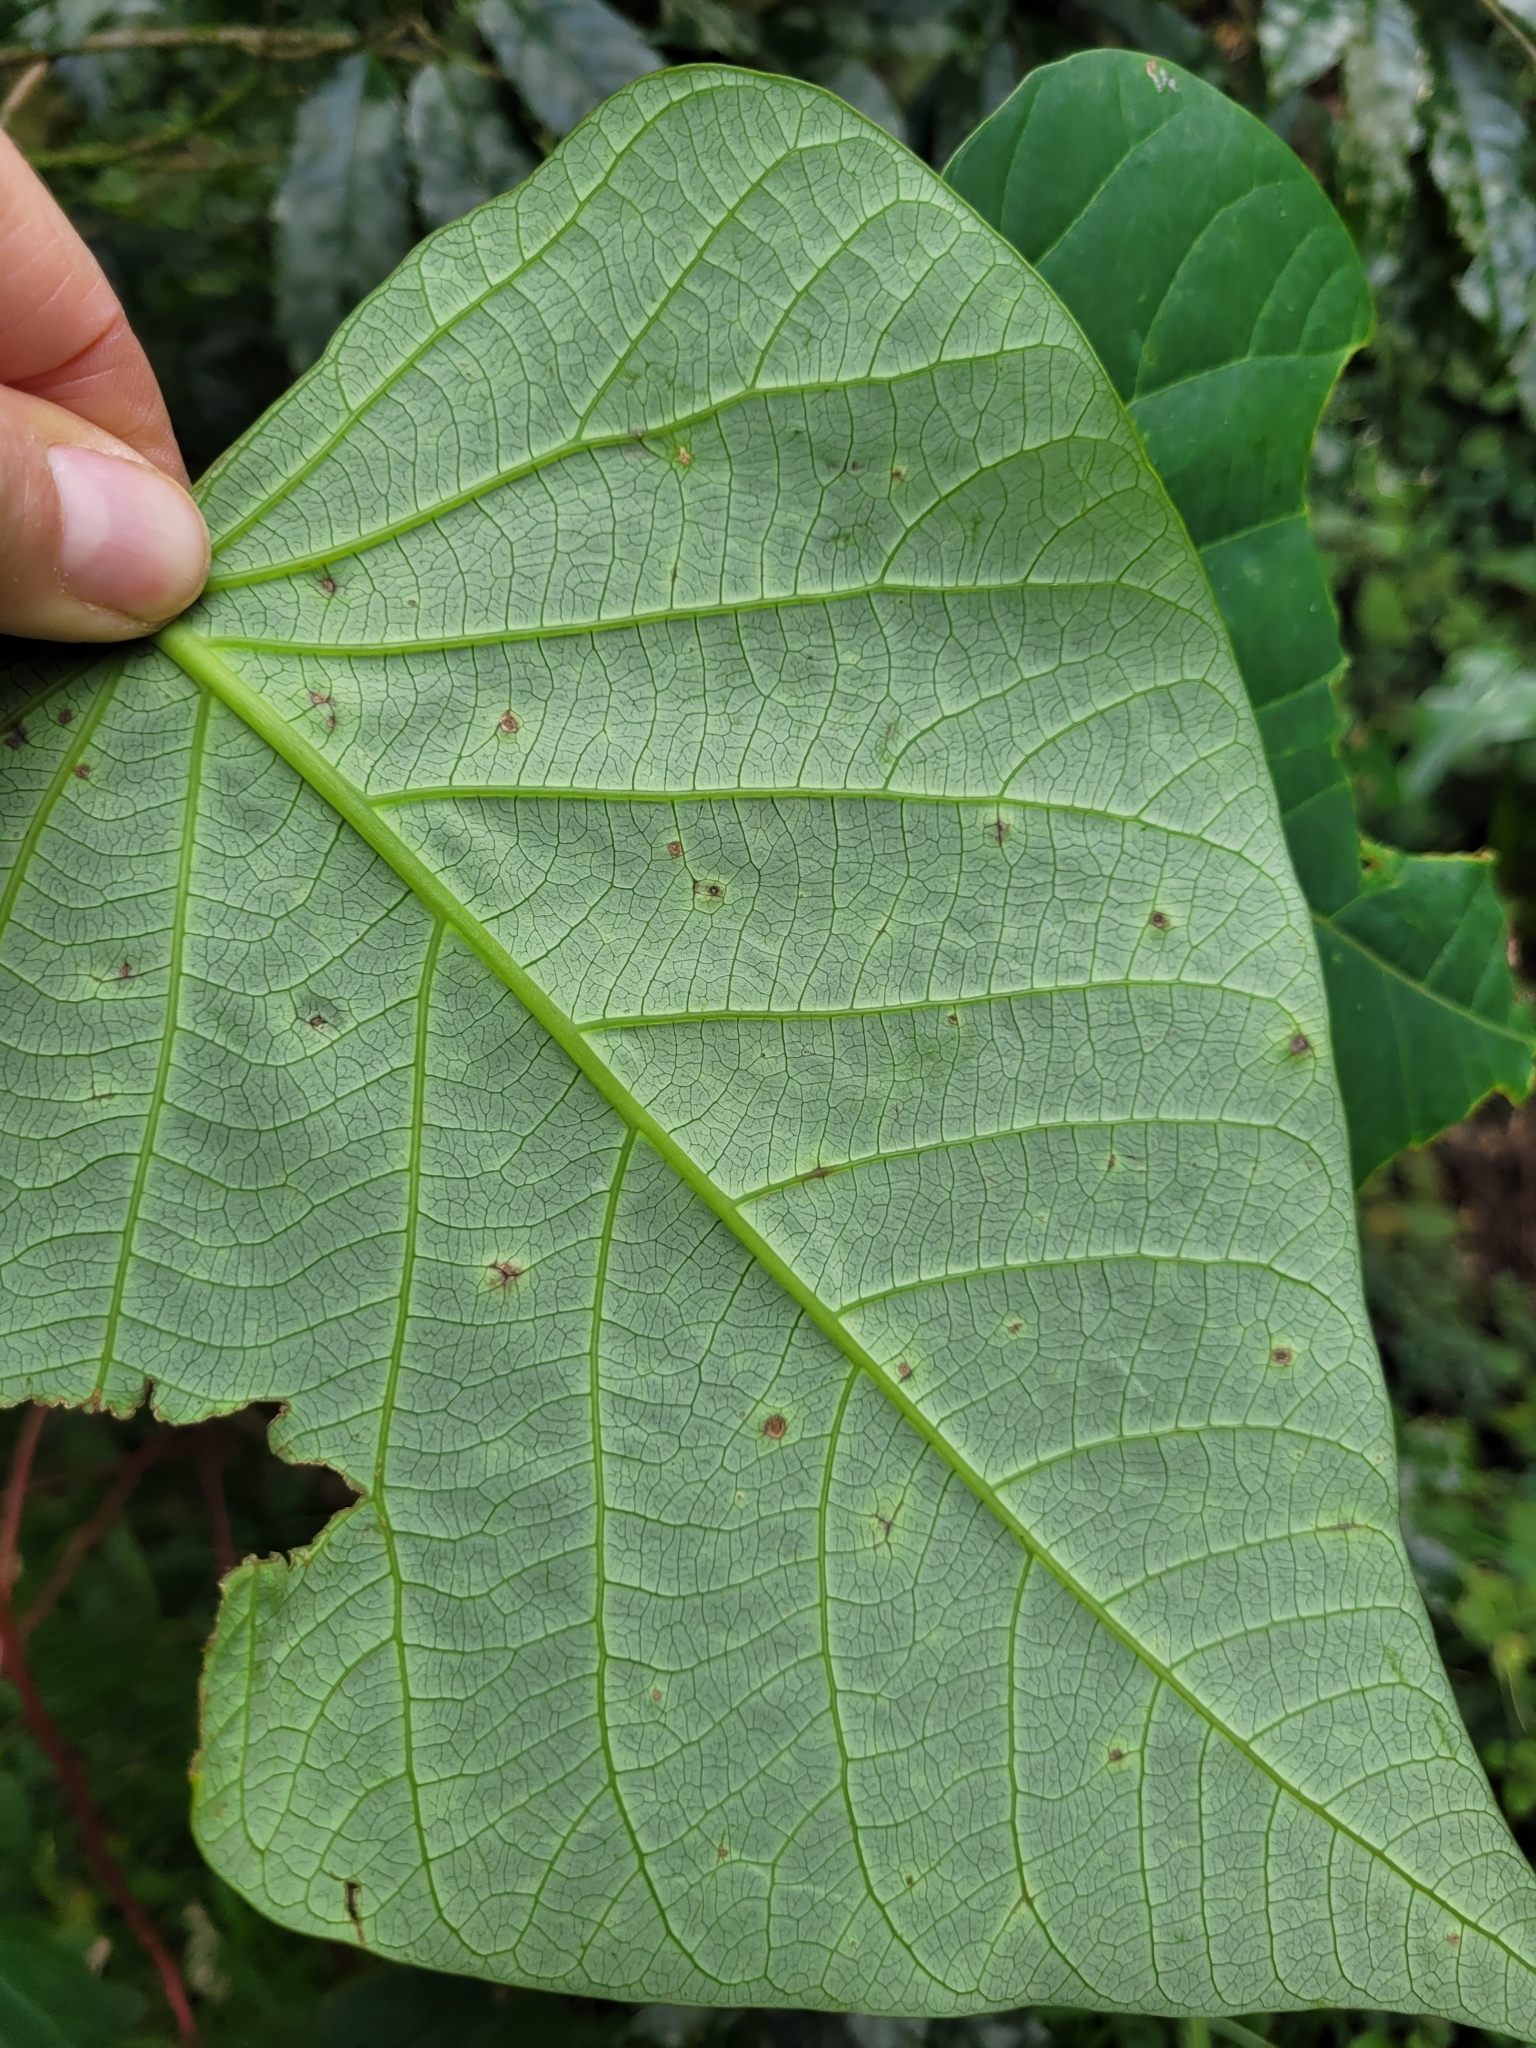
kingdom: Plantae
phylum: Tracheophyta
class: Magnoliopsida
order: Malpighiales
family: Euphorbiaceae
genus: Homalanthus
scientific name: Homalanthus populifolius
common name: Queensland poplar
